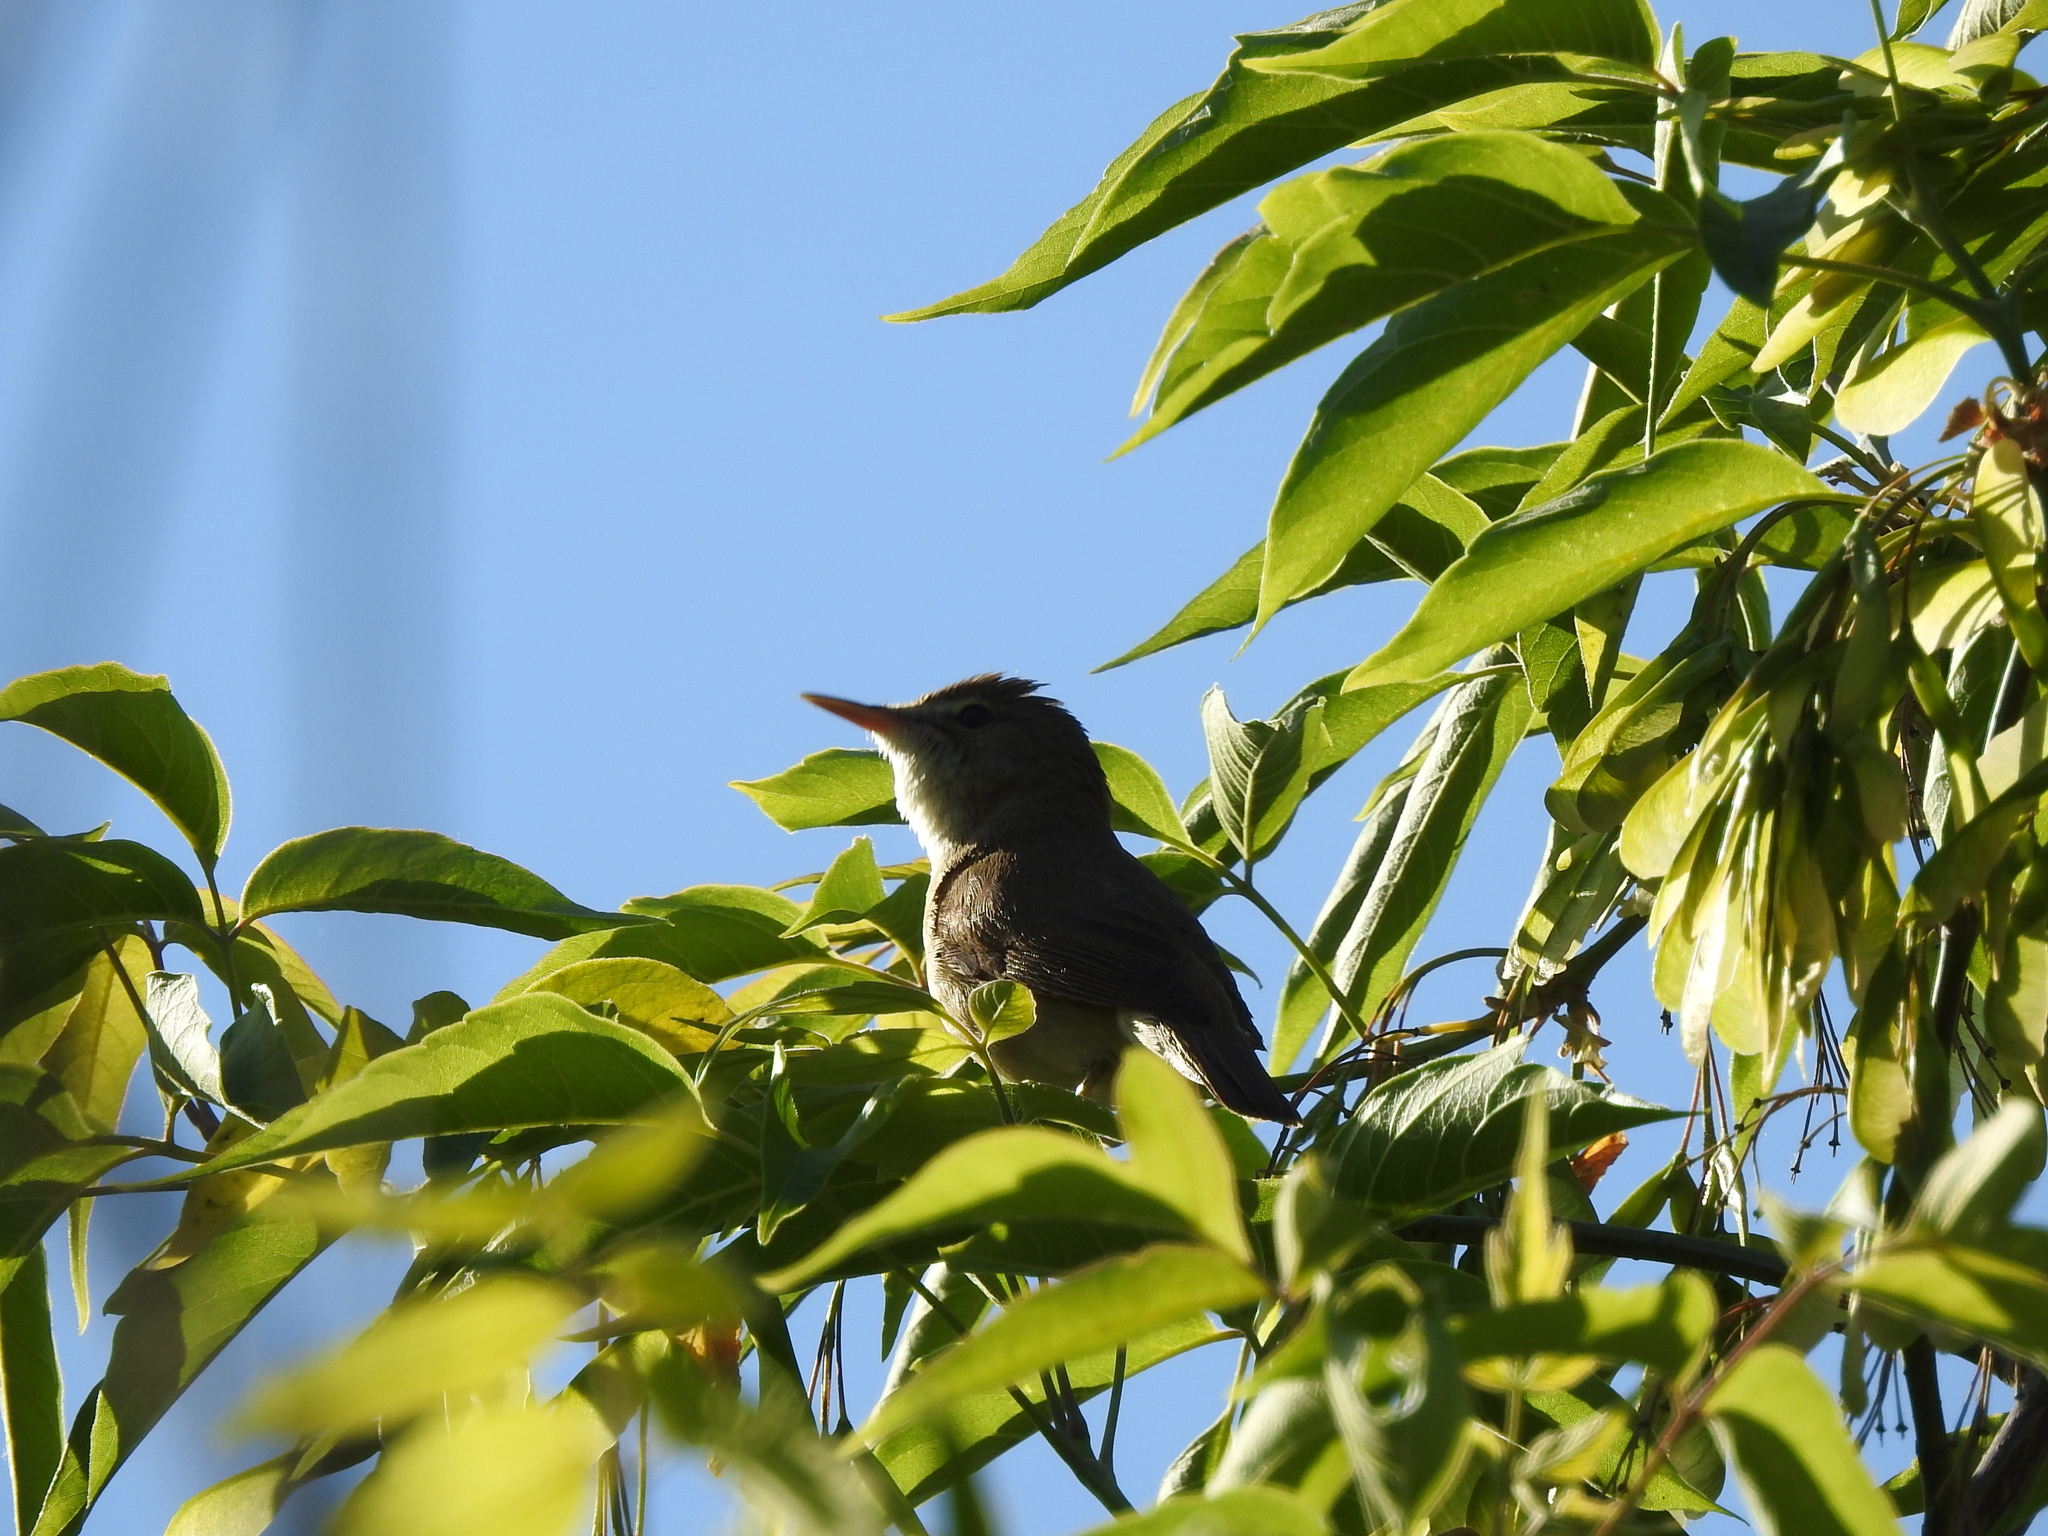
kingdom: Animalia
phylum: Chordata
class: Aves
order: Passeriformes
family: Acrocephalidae
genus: Acrocephalus
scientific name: Acrocephalus dumetorum
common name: Blyth's reed warbler
